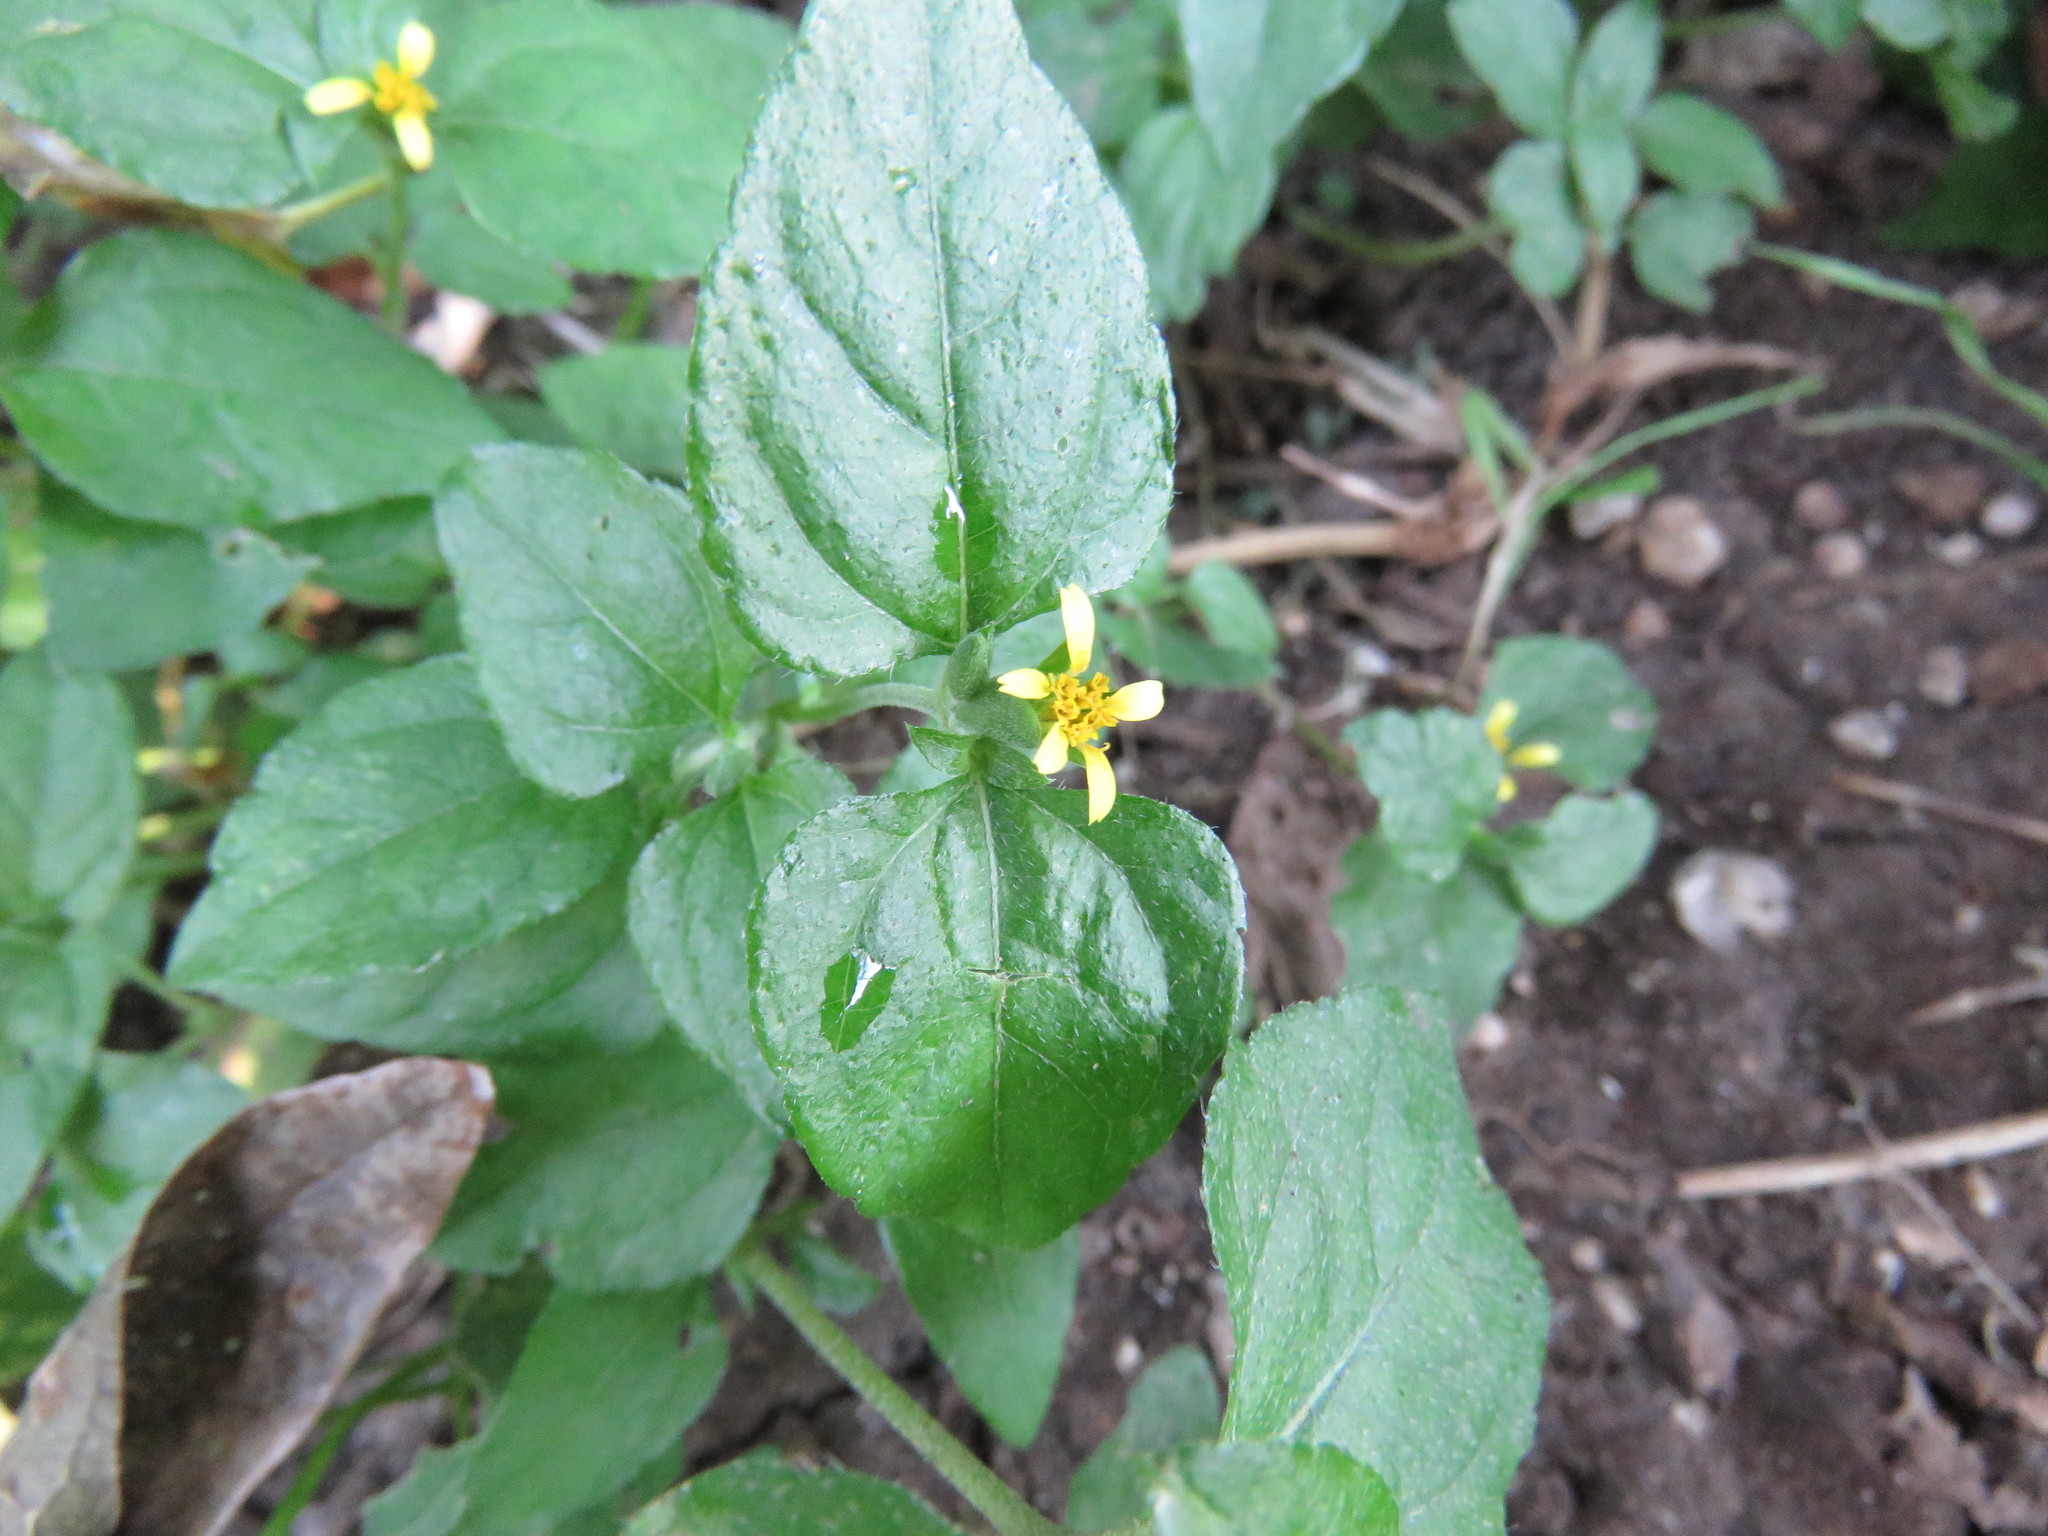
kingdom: Plantae
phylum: Tracheophyta
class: Magnoliopsida
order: Asterales
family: Asteraceae
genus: Calyptocarpus
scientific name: Calyptocarpus vialis
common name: Straggler daisy
